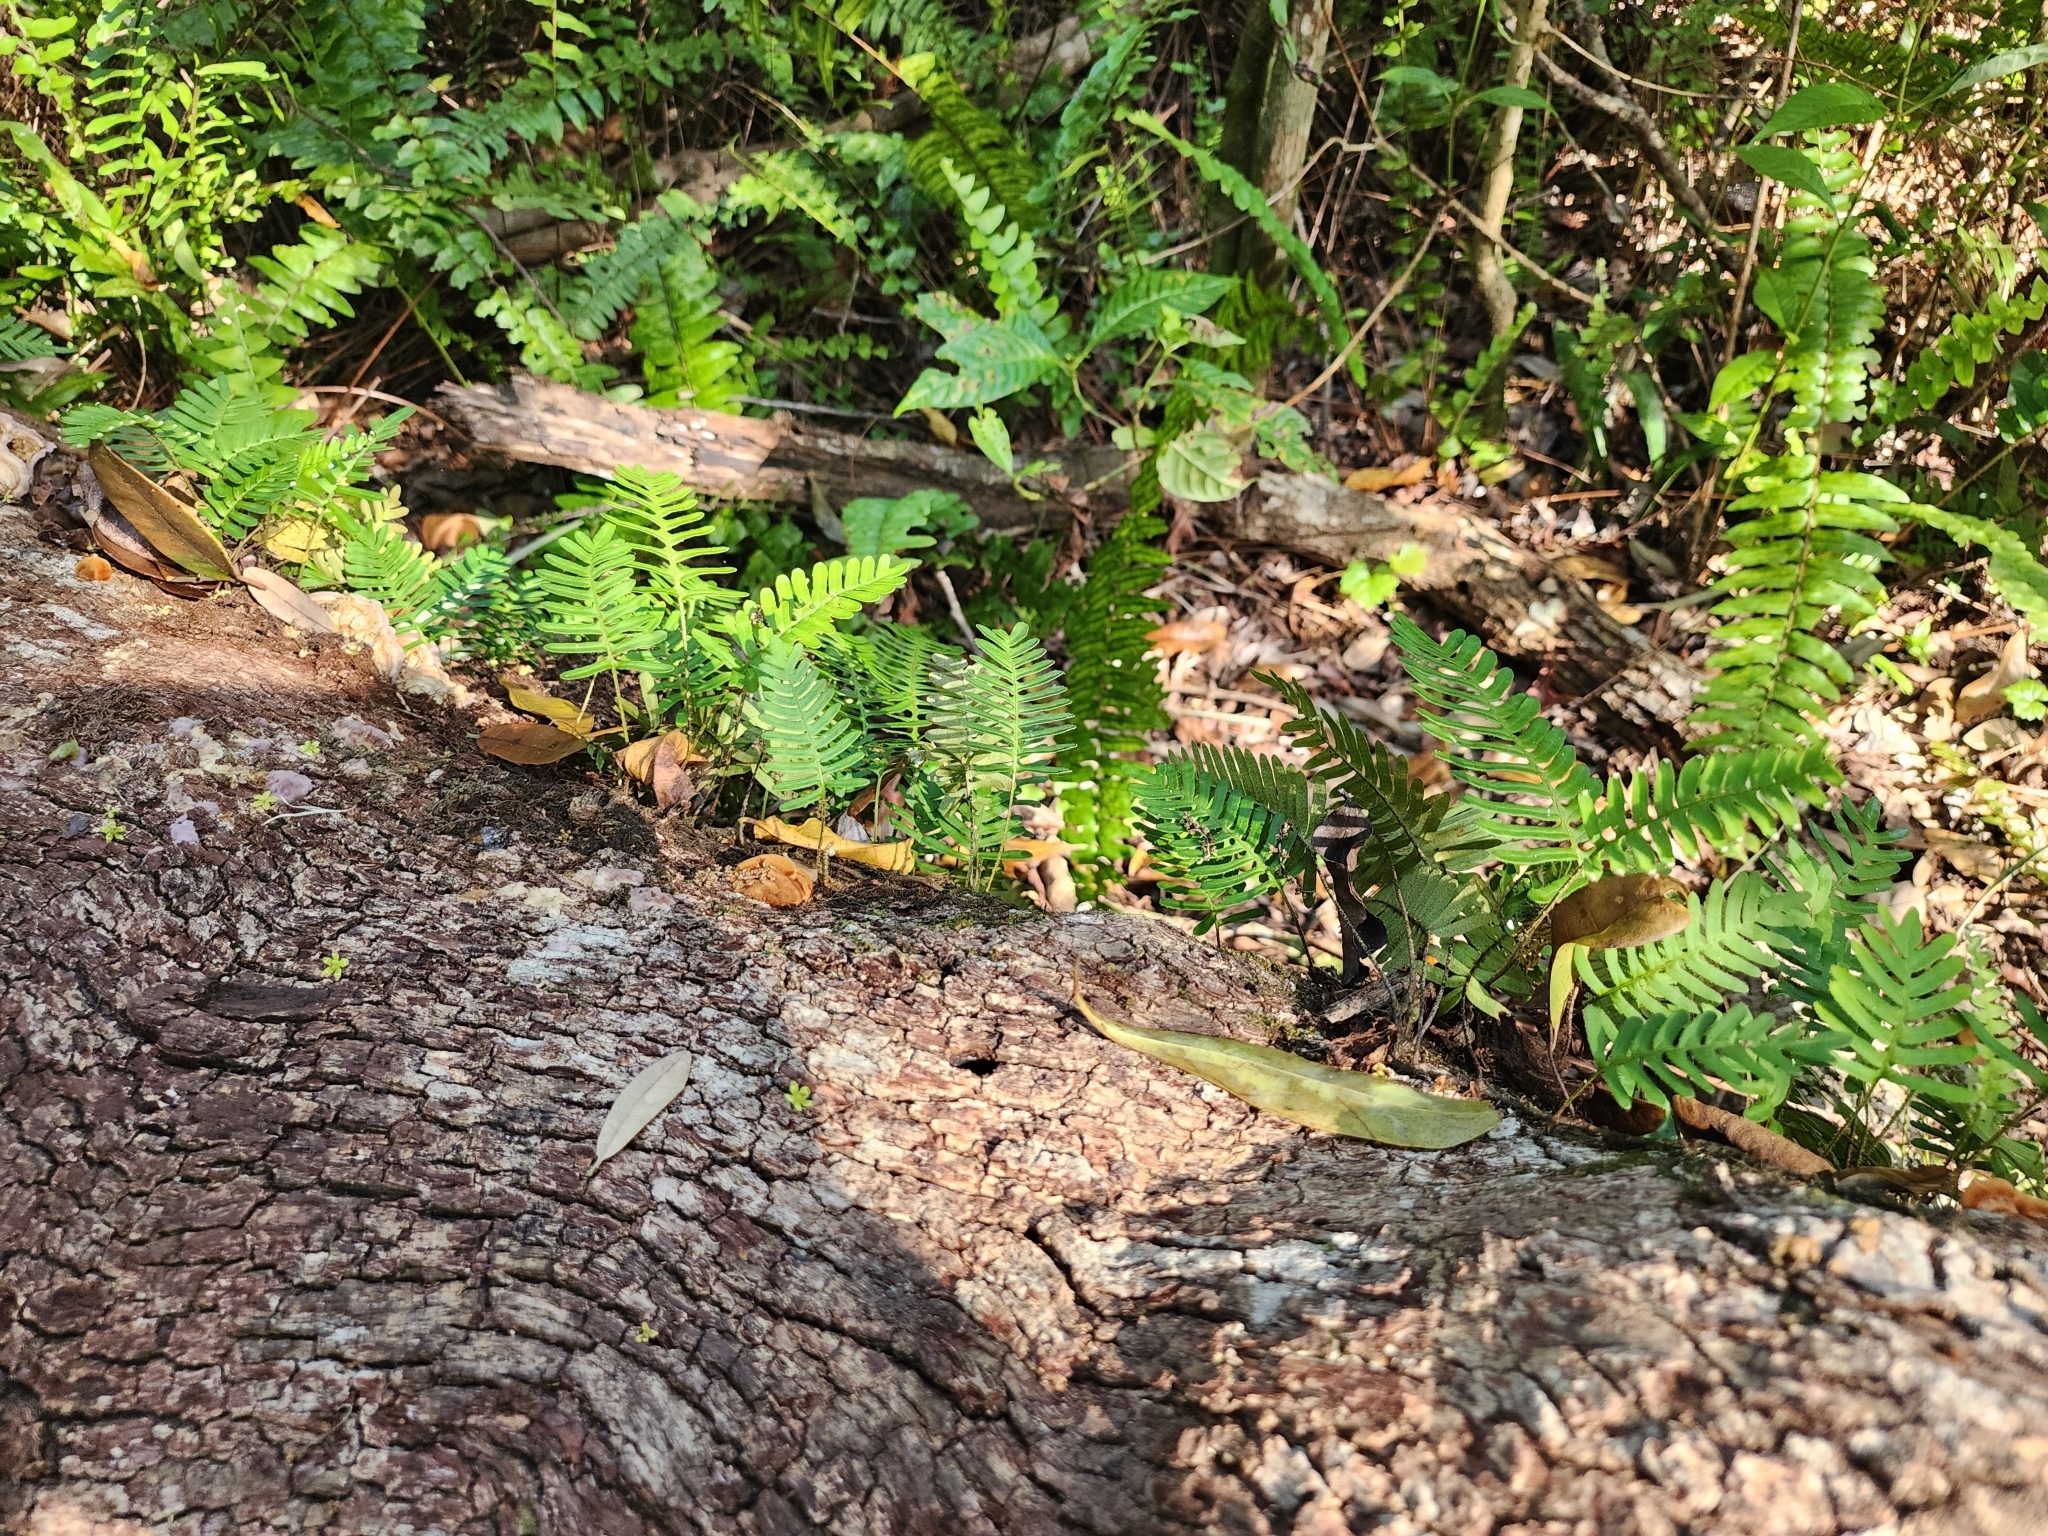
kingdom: Plantae
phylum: Tracheophyta
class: Polypodiopsida
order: Polypodiales
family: Polypodiaceae
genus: Pleopeltis
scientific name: Pleopeltis michauxiana
